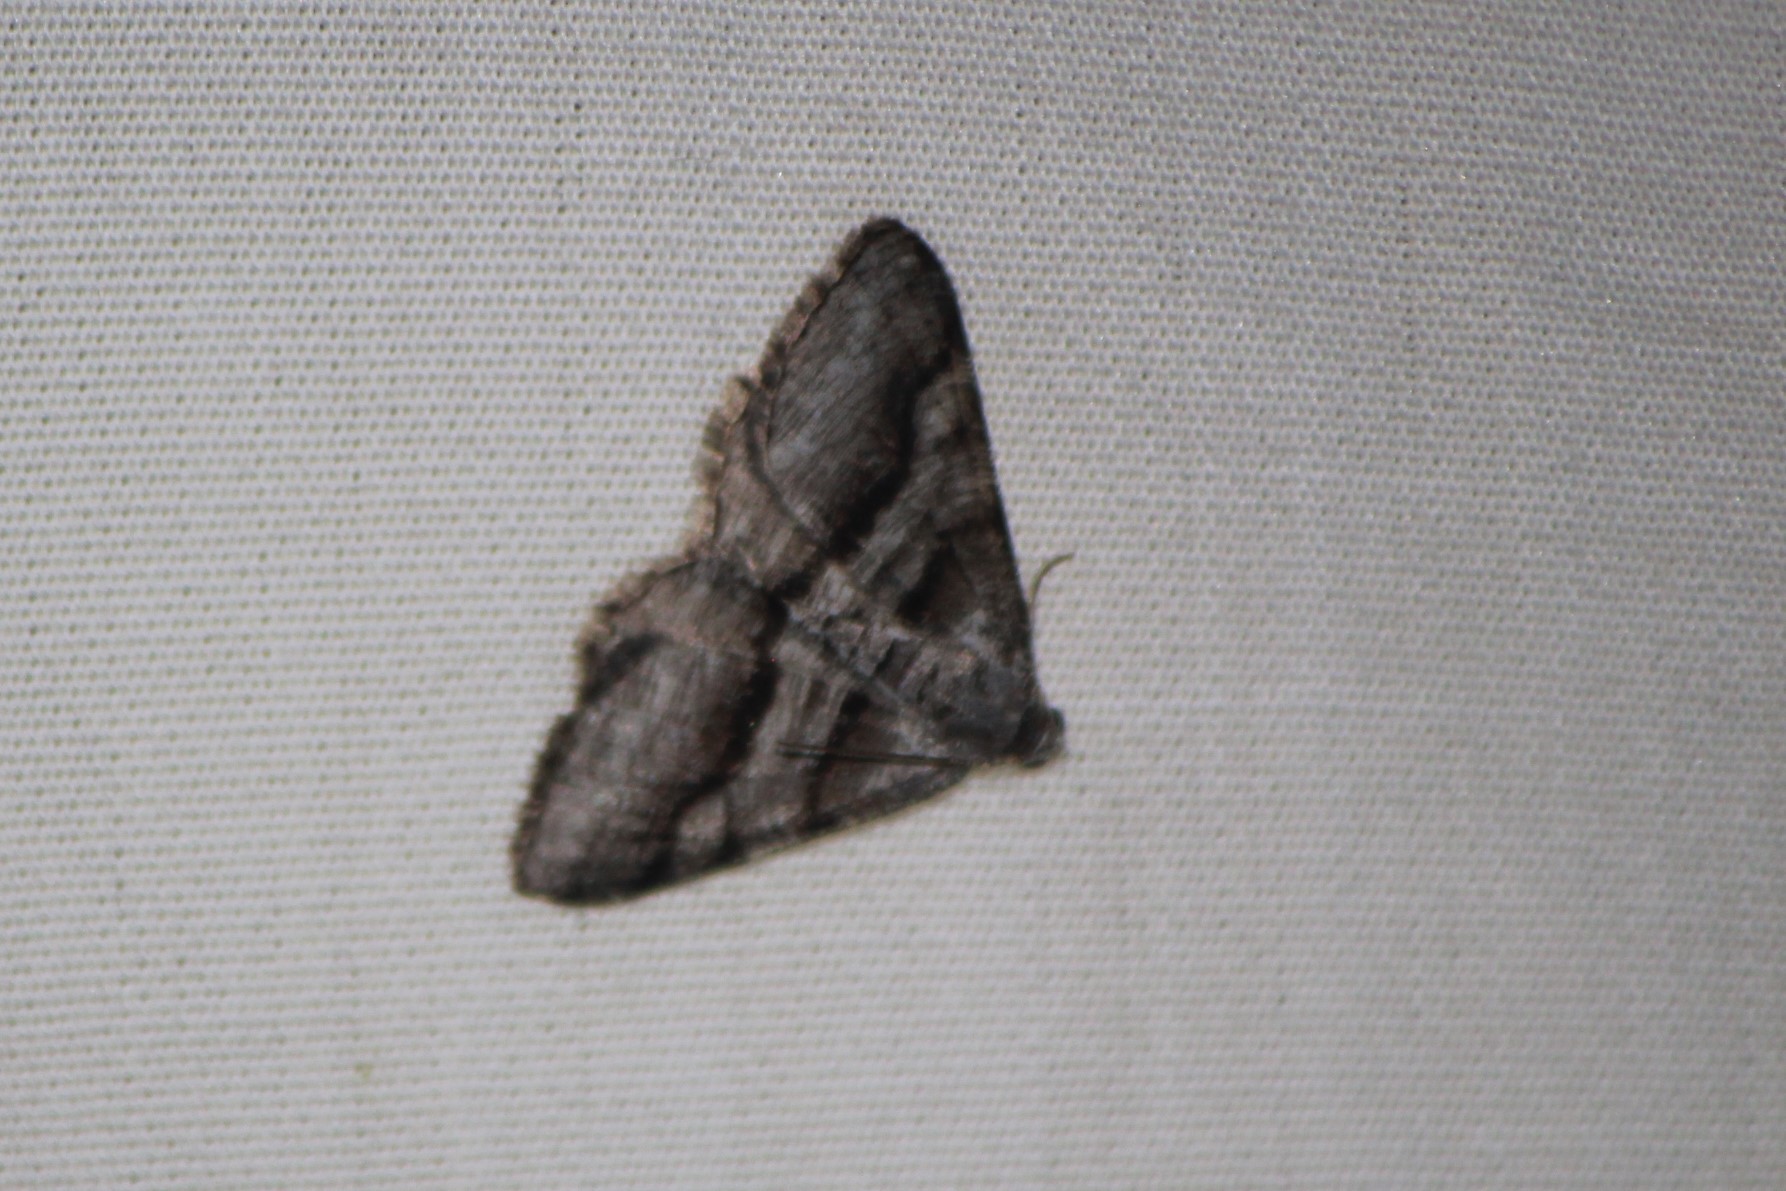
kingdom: Animalia
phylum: Arthropoda
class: Insecta
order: Lepidoptera
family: Geometridae
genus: Digrammia
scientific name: Digrammia continuata
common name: Curve-lined angle
